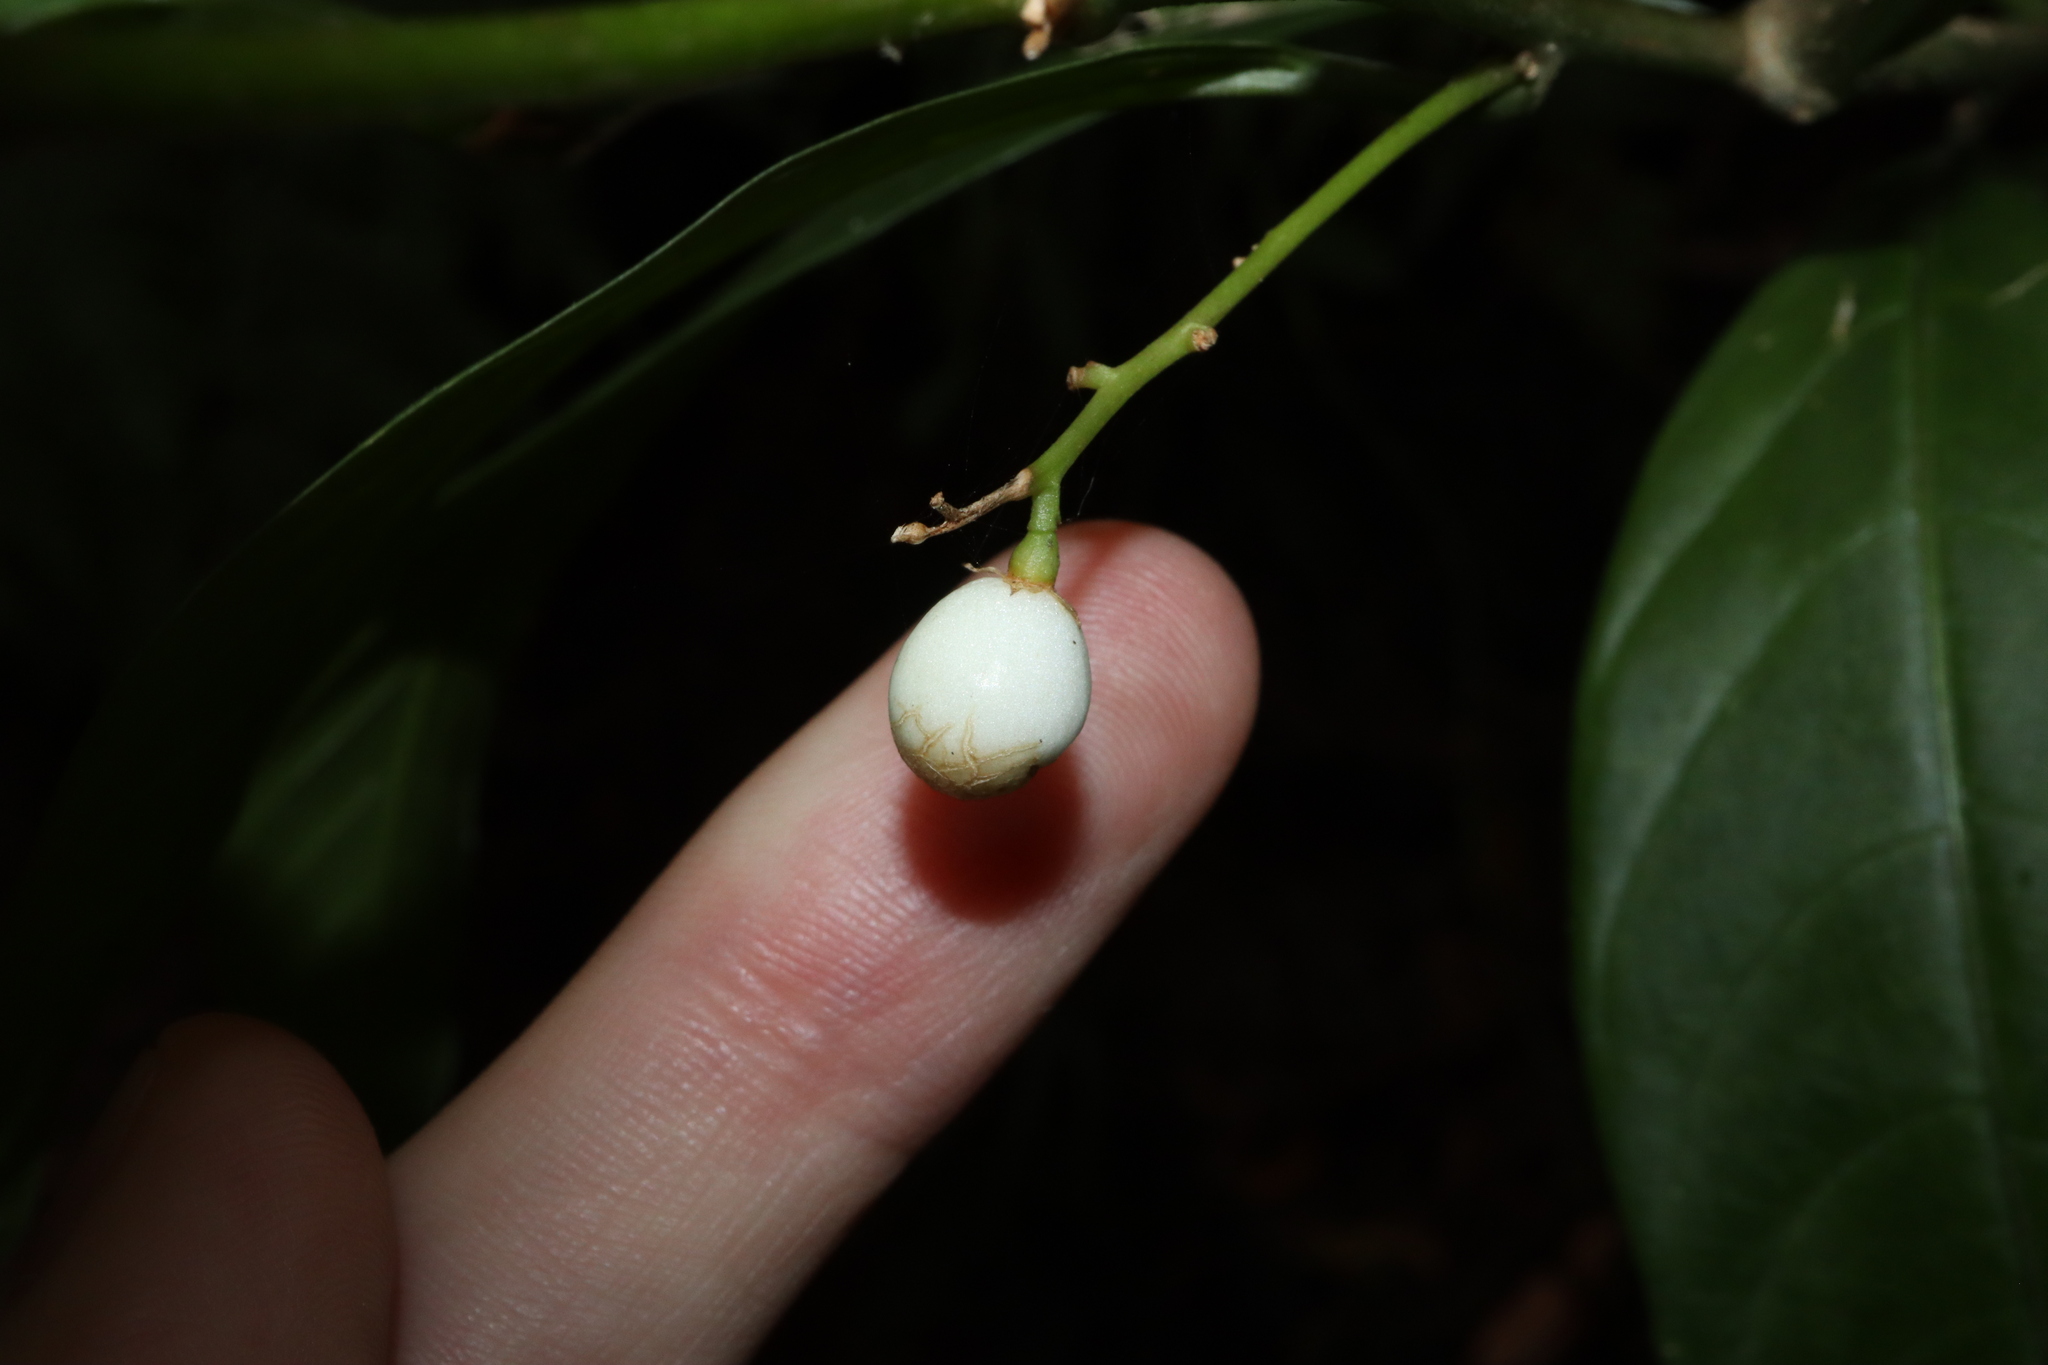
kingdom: Plantae
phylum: Tracheophyta
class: Magnoliopsida
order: Solanales
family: Solanaceae
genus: Cestrum
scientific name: Cestrum nocturnum
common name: Night jessamine
